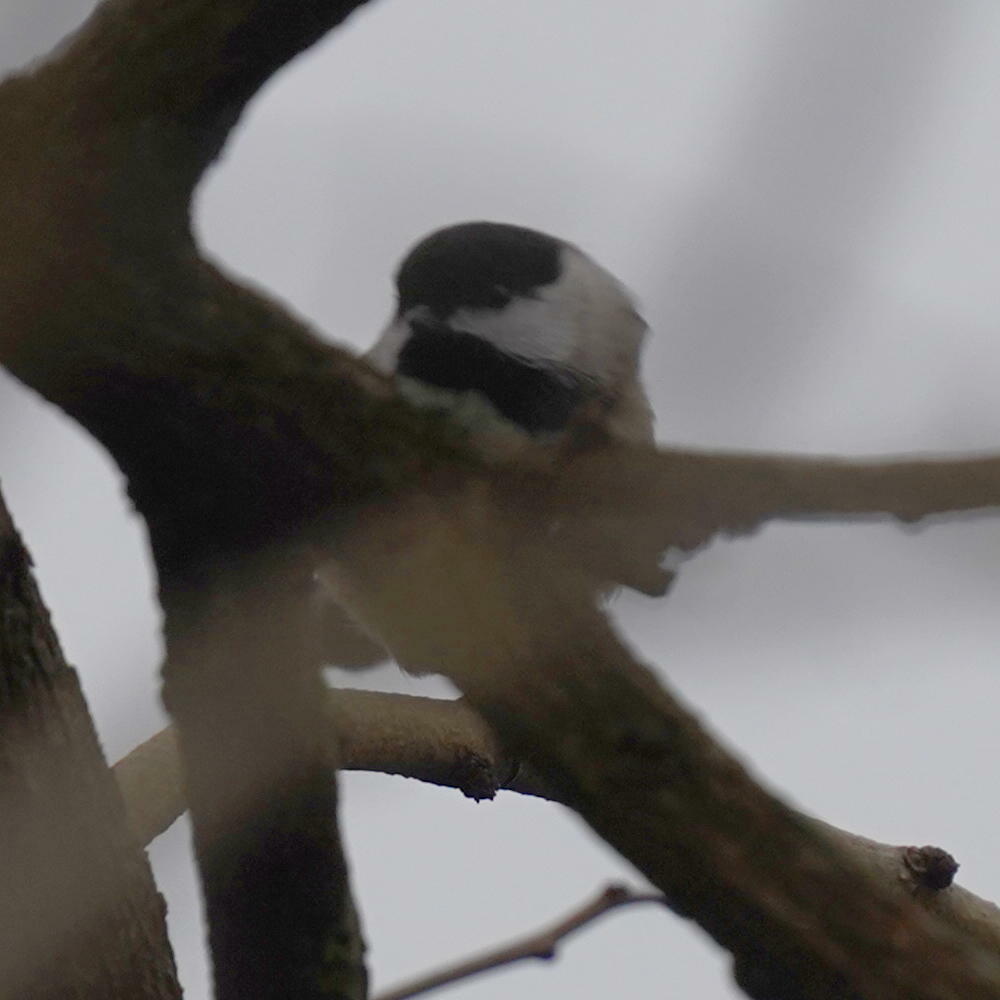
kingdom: Animalia
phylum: Chordata
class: Aves
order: Passeriformes
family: Paridae
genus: Poecile
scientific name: Poecile atricapillus
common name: Black-capped chickadee
